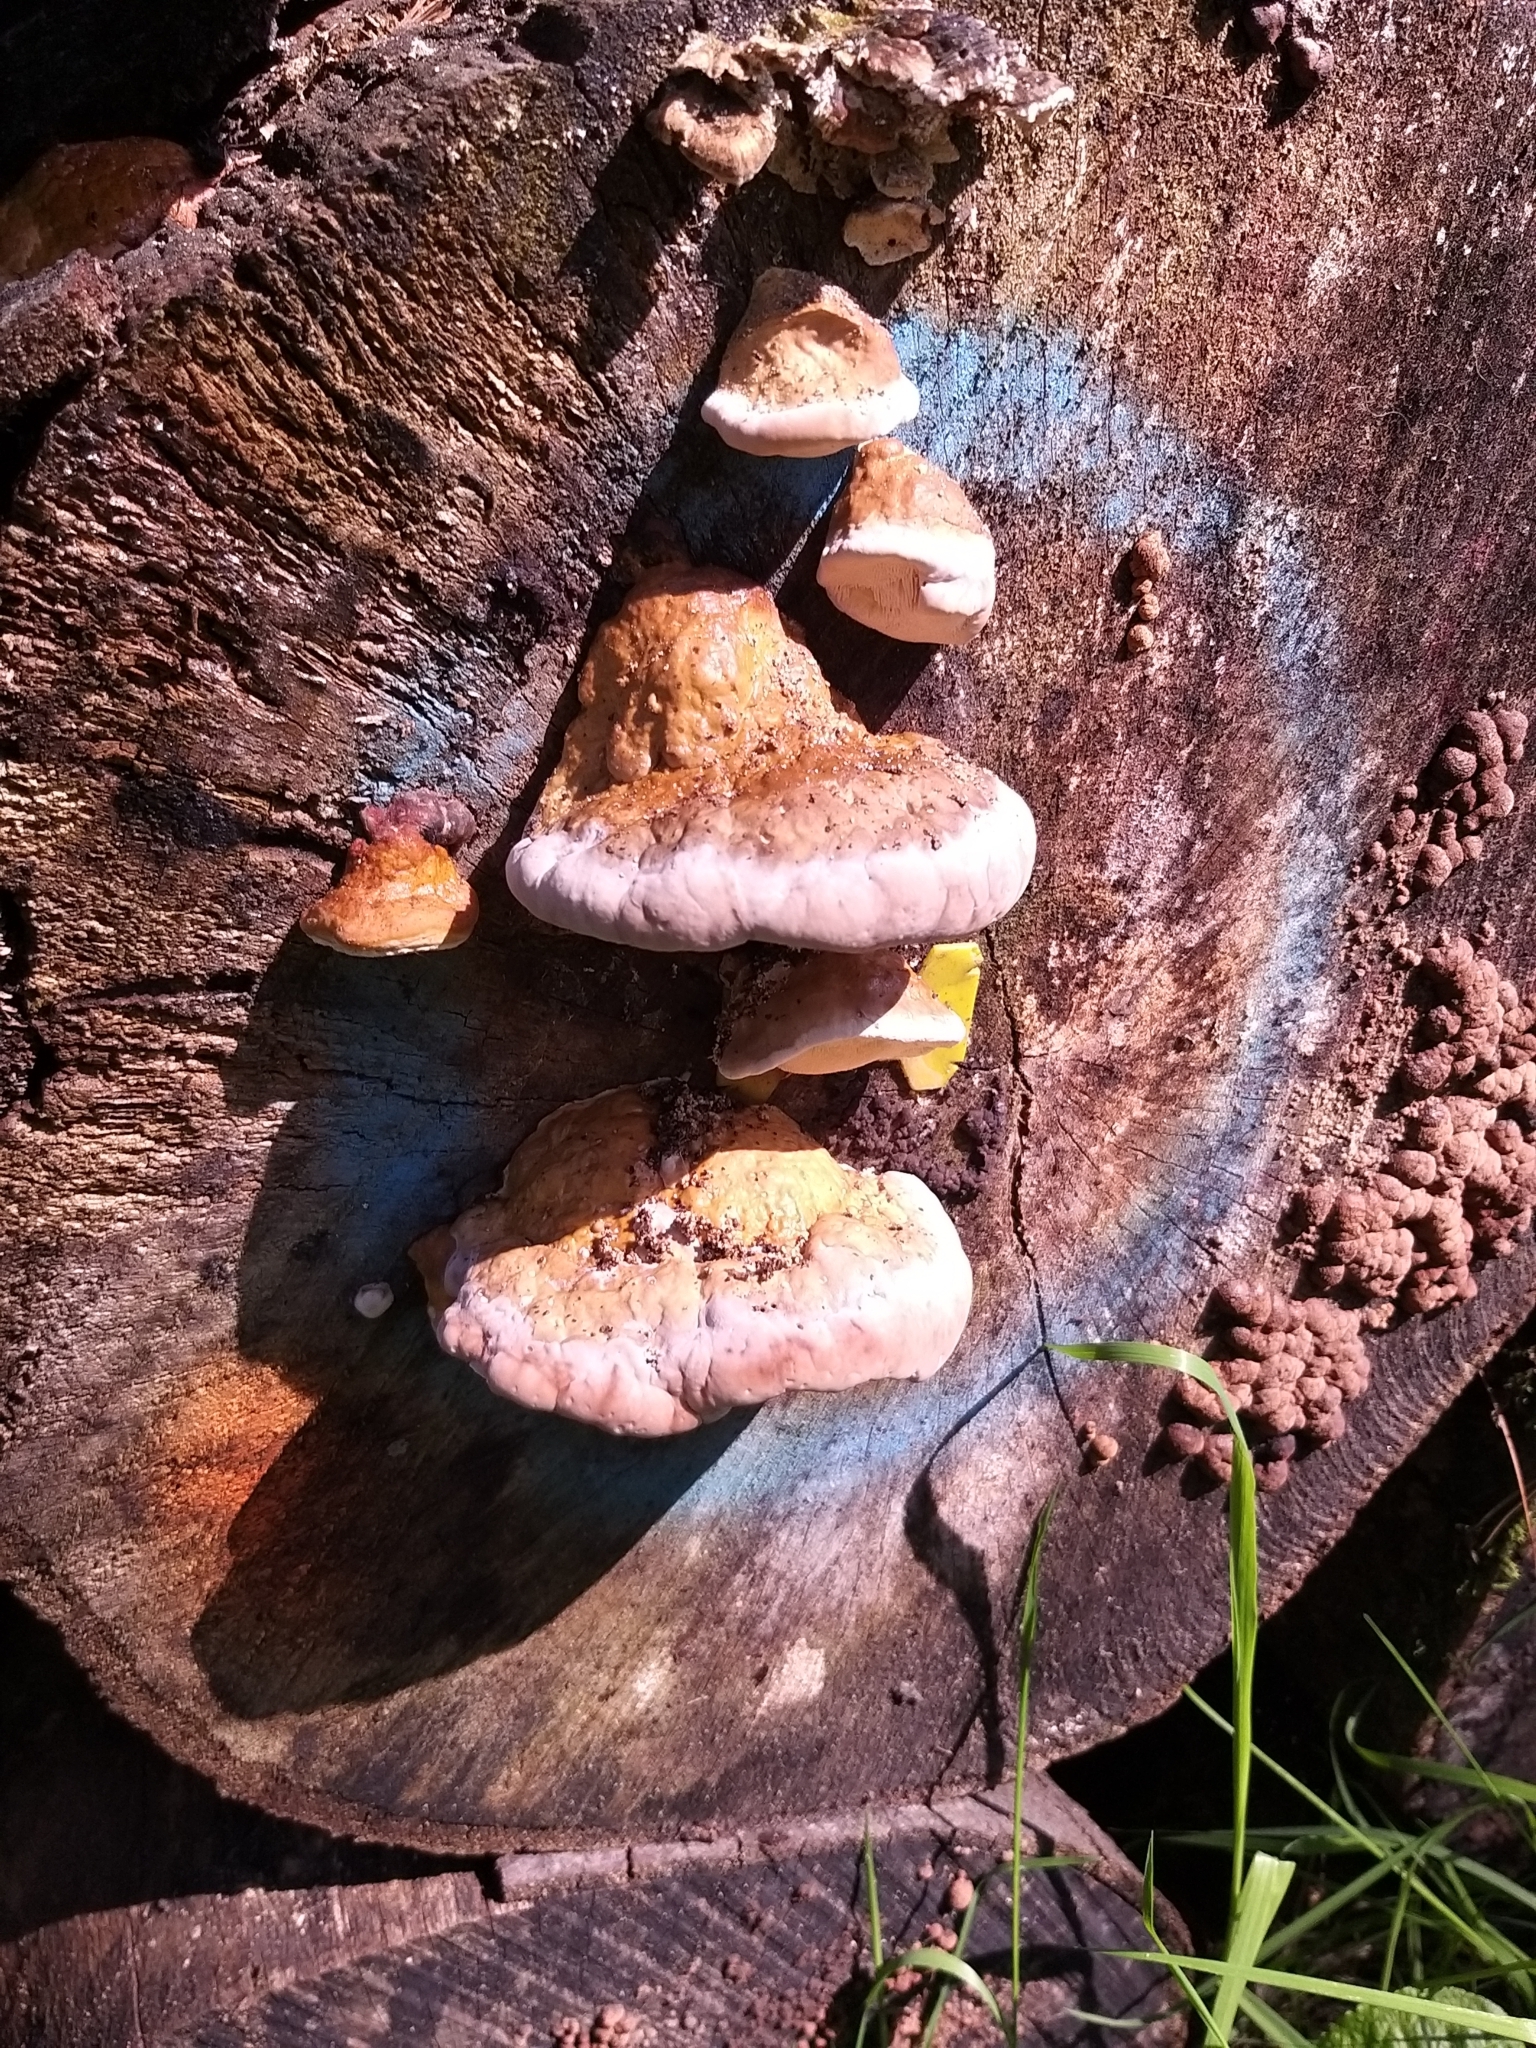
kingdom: Fungi
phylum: Basidiomycota
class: Agaricomycetes
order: Polyporales
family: Fomitopsidaceae
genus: Fomitopsis
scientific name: Fomitopsis pinicola
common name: Red-belted bracket
